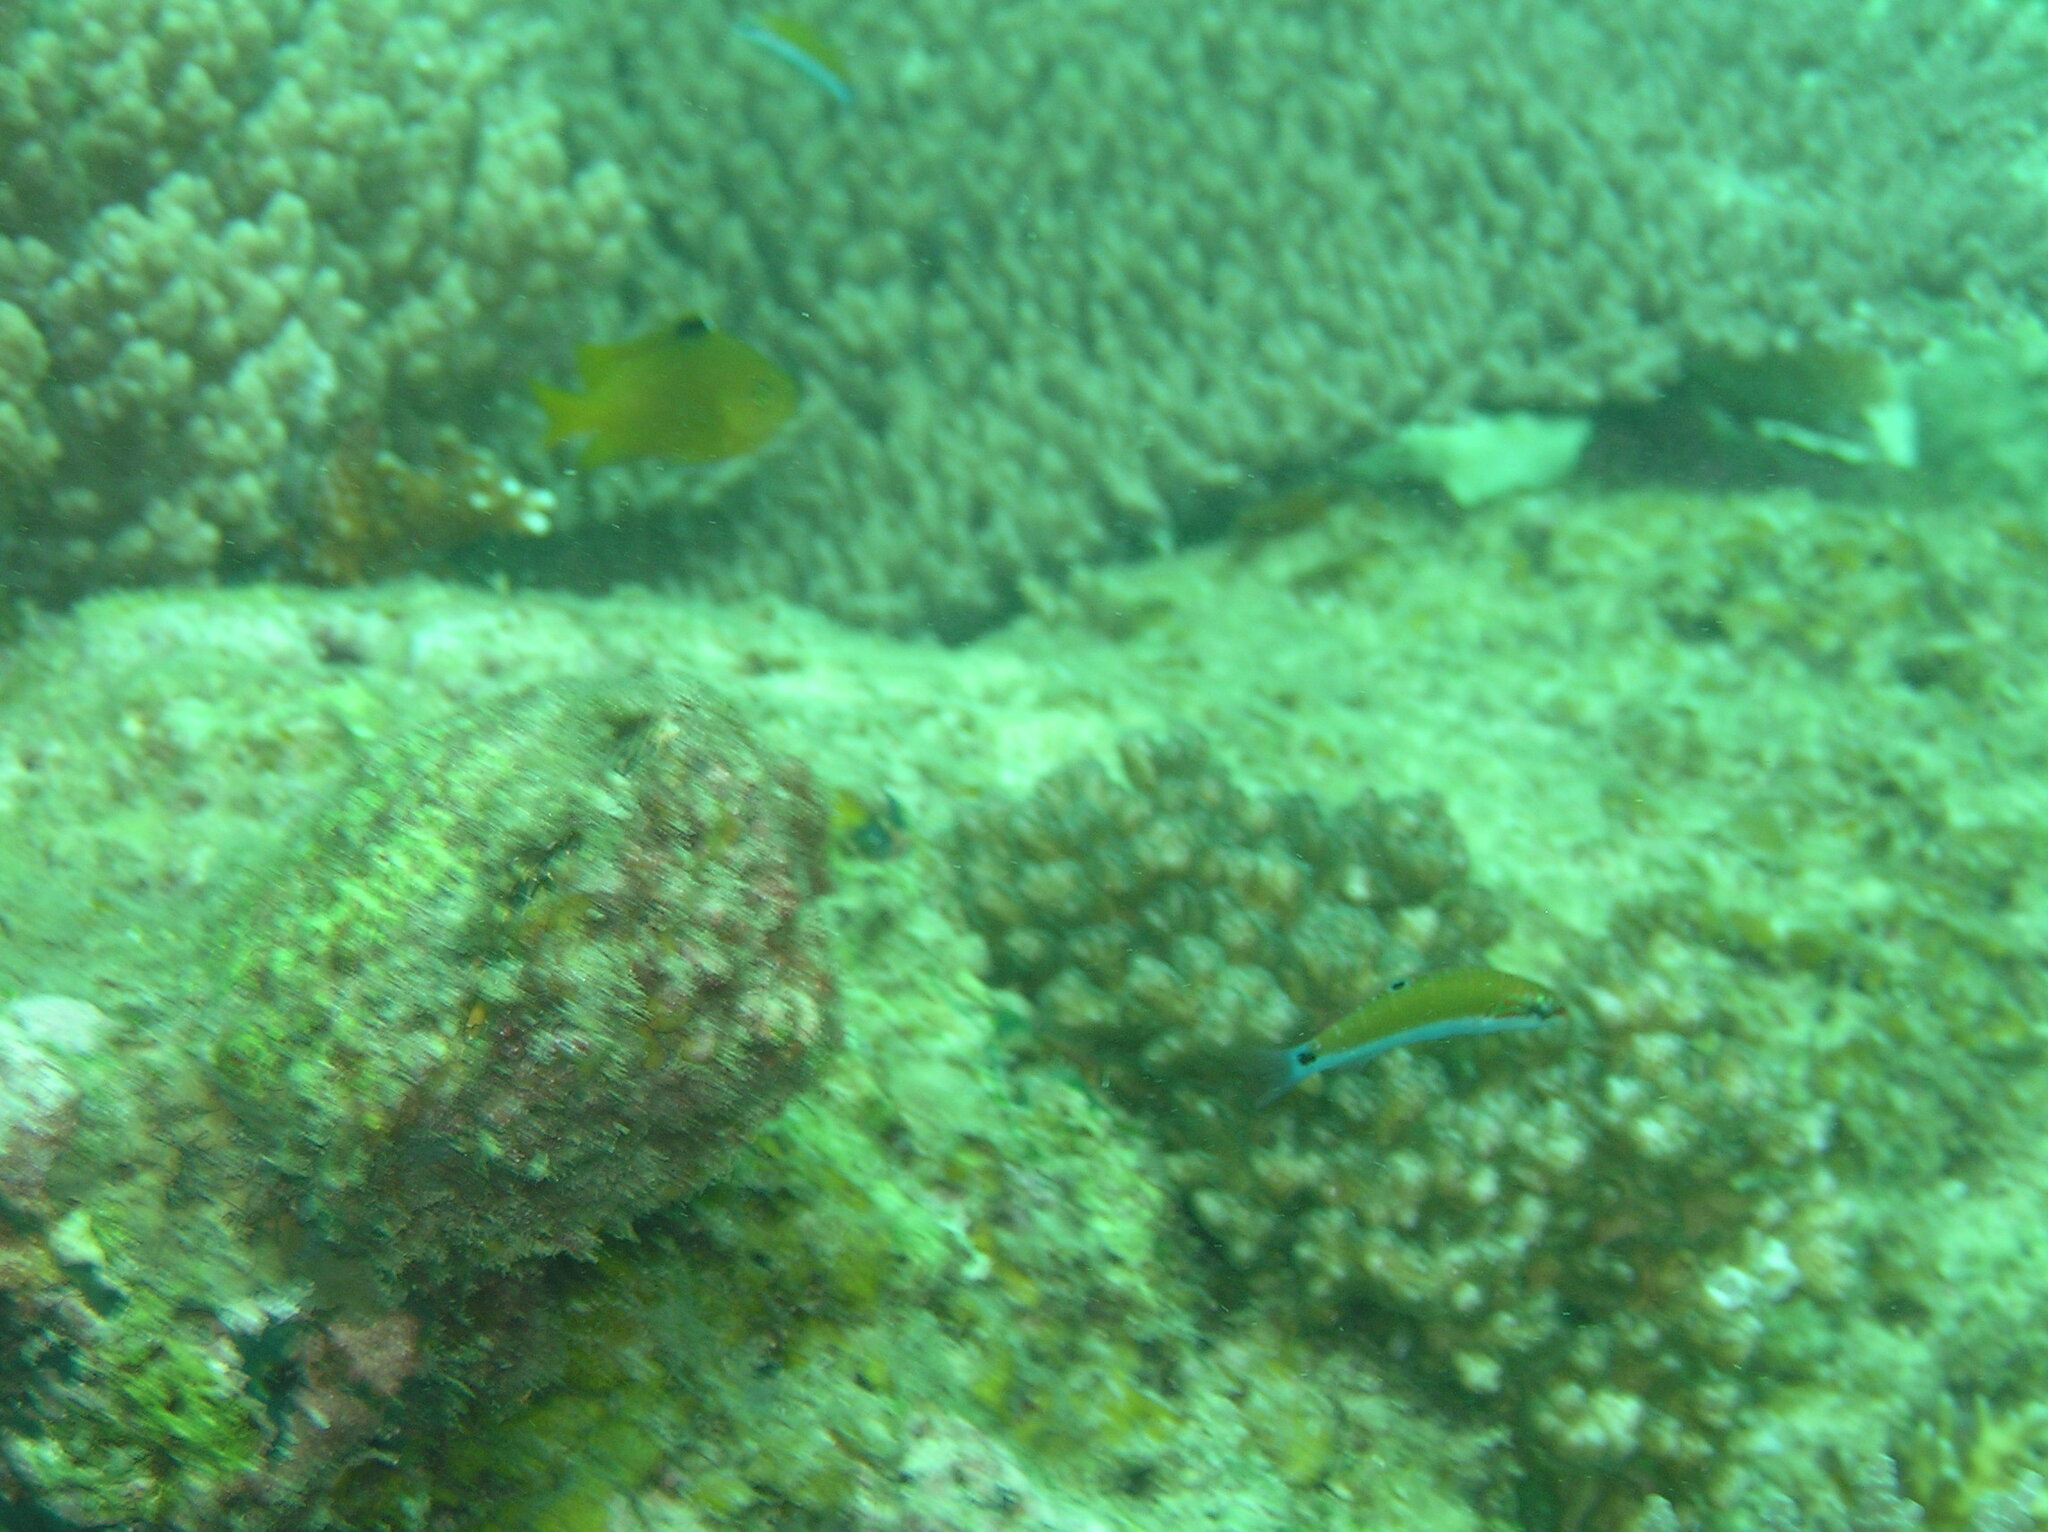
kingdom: Animalia
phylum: Chordata
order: Perciformes
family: Labridae
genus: Thalassoma
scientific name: Thalassoma lunare
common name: Blue wrasse
